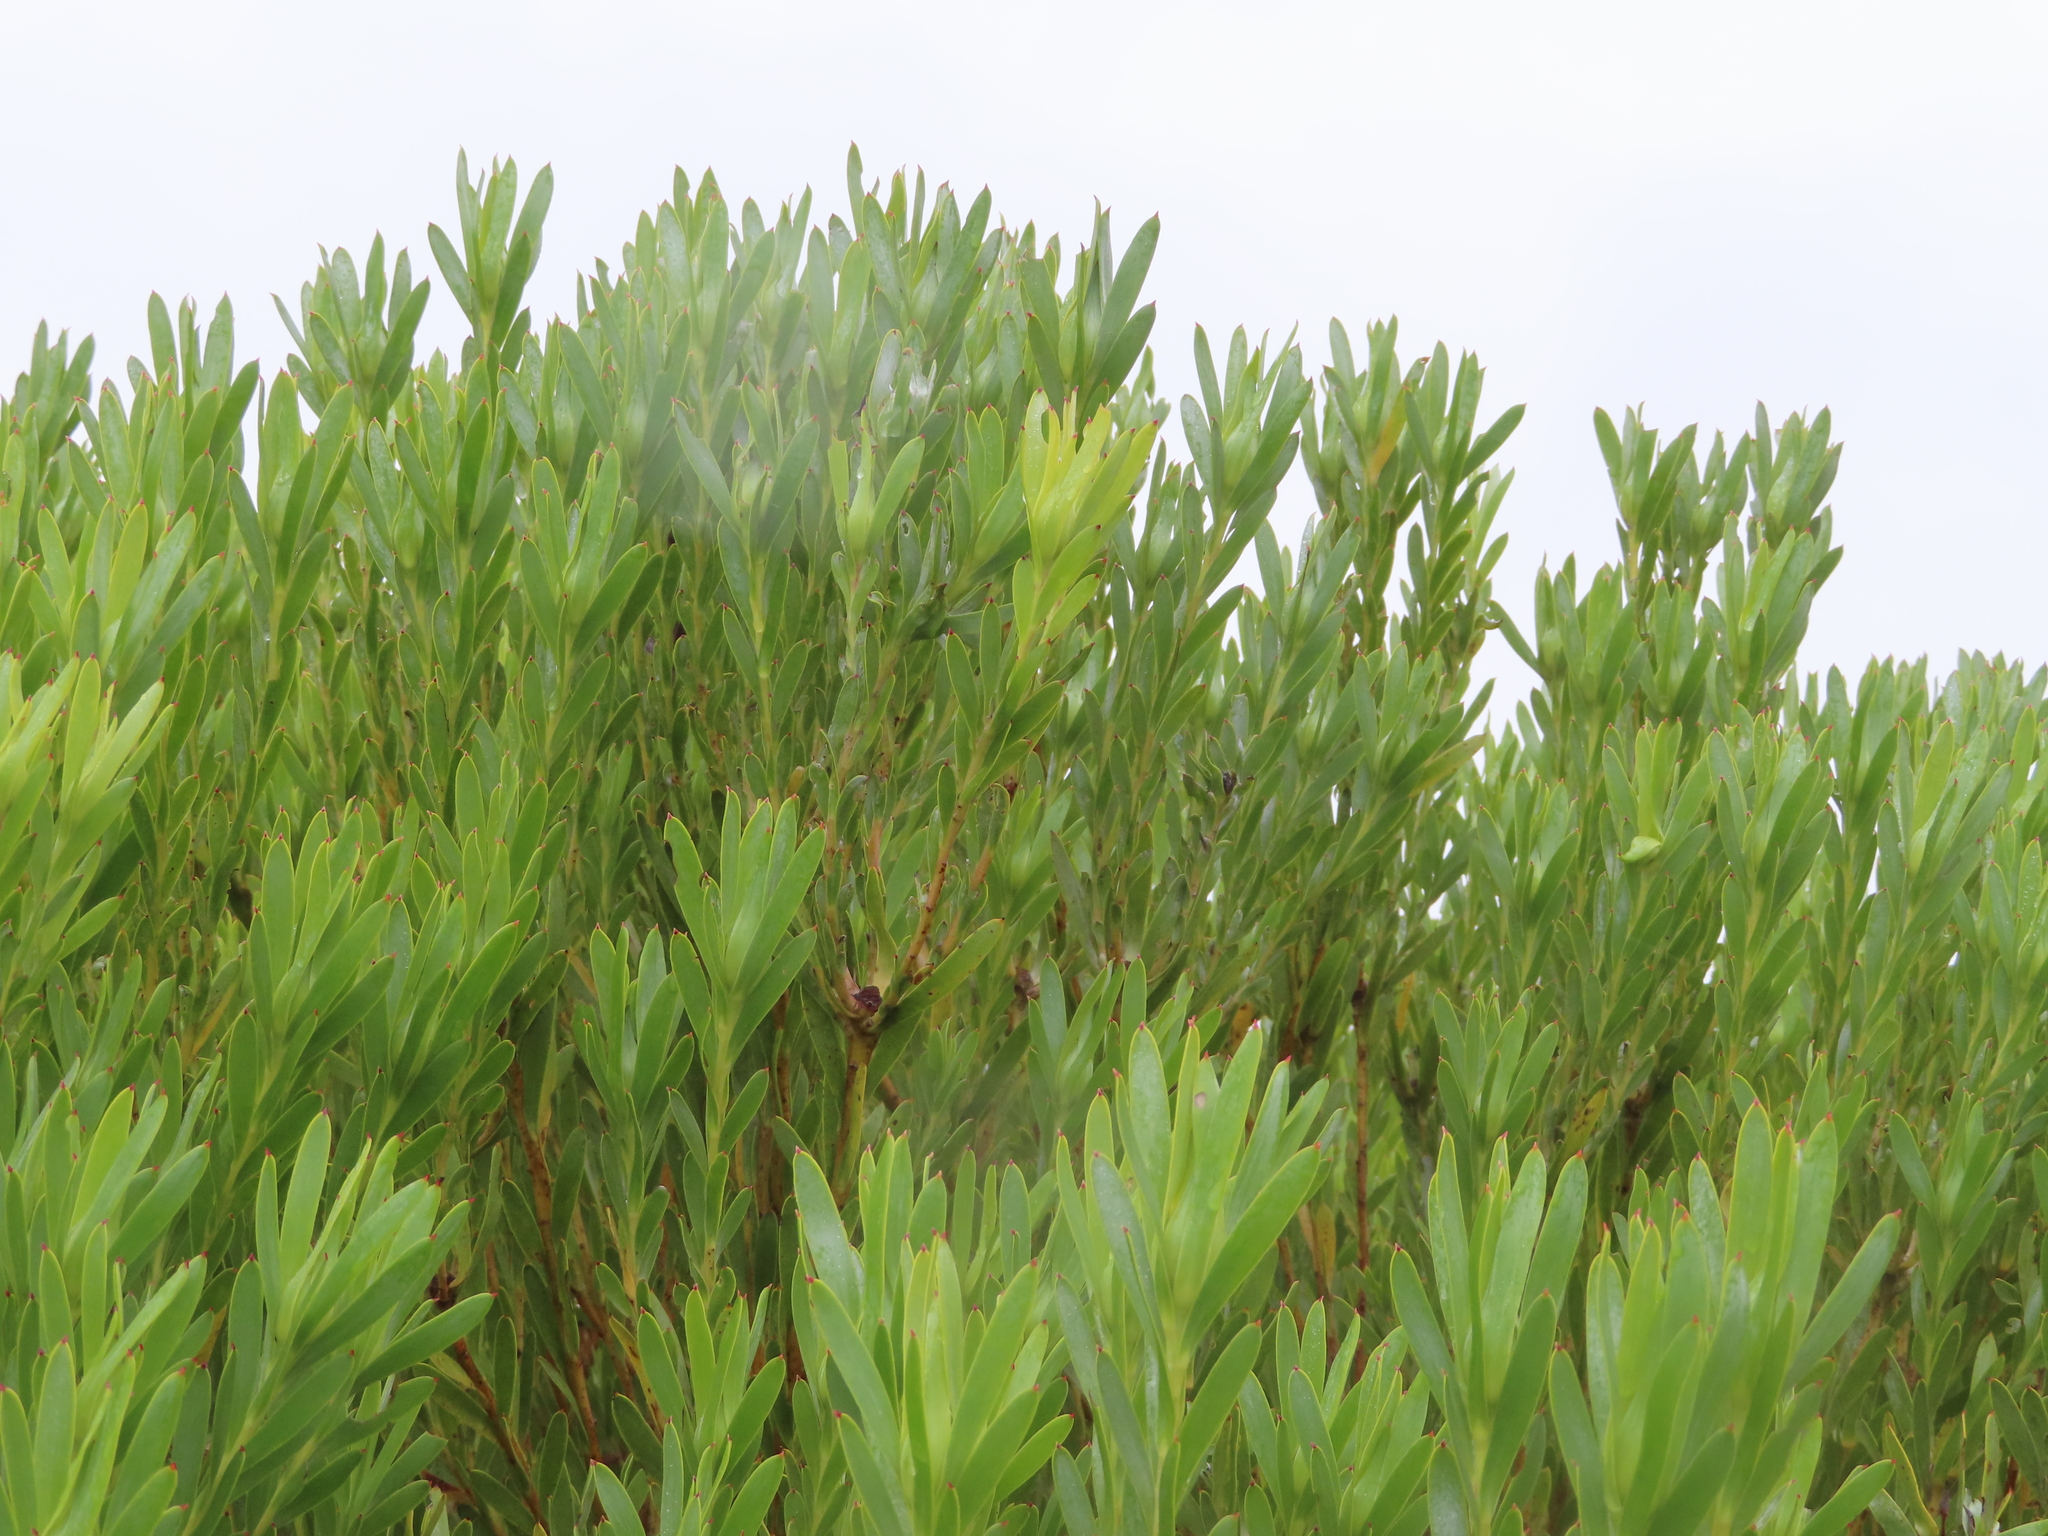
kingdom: Plantae
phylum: Tracheophyta
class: Magnoliopsida
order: Proteales
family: Proteaceae
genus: Leucadendron
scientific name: Leucadendron meridianum
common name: Limestone conebush
